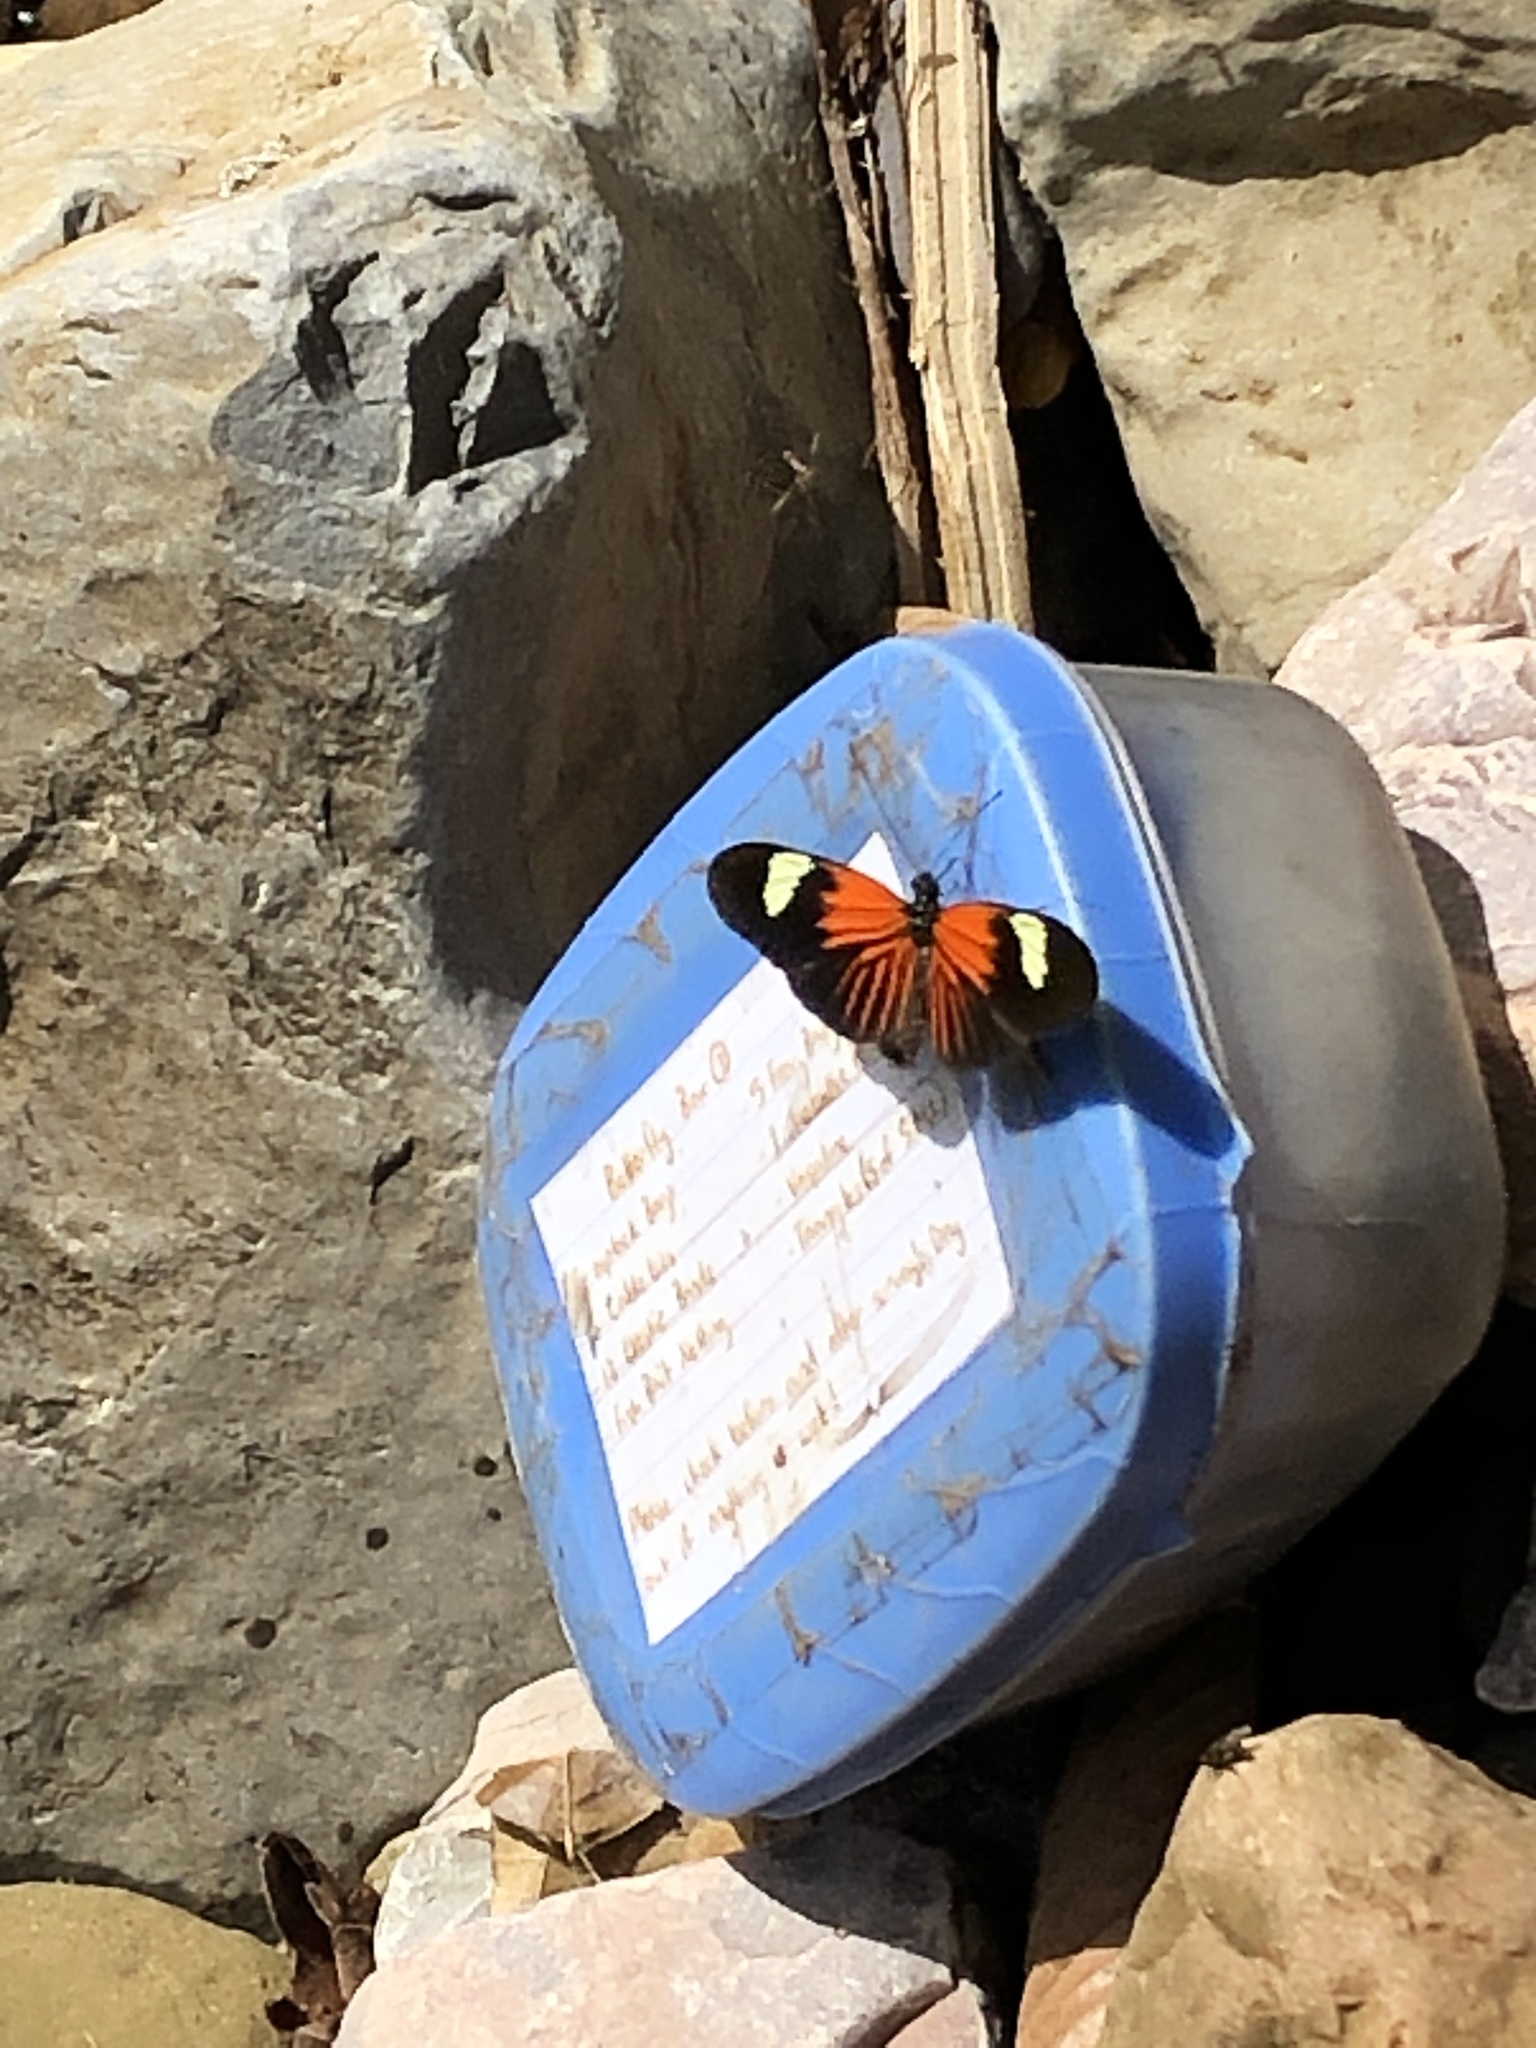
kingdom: Animalia
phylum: Arthropoda
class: Insecta
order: Lepidoptera
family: Nymphalidae
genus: Heliconius
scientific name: Heliconius erato
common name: Common patch longwing
